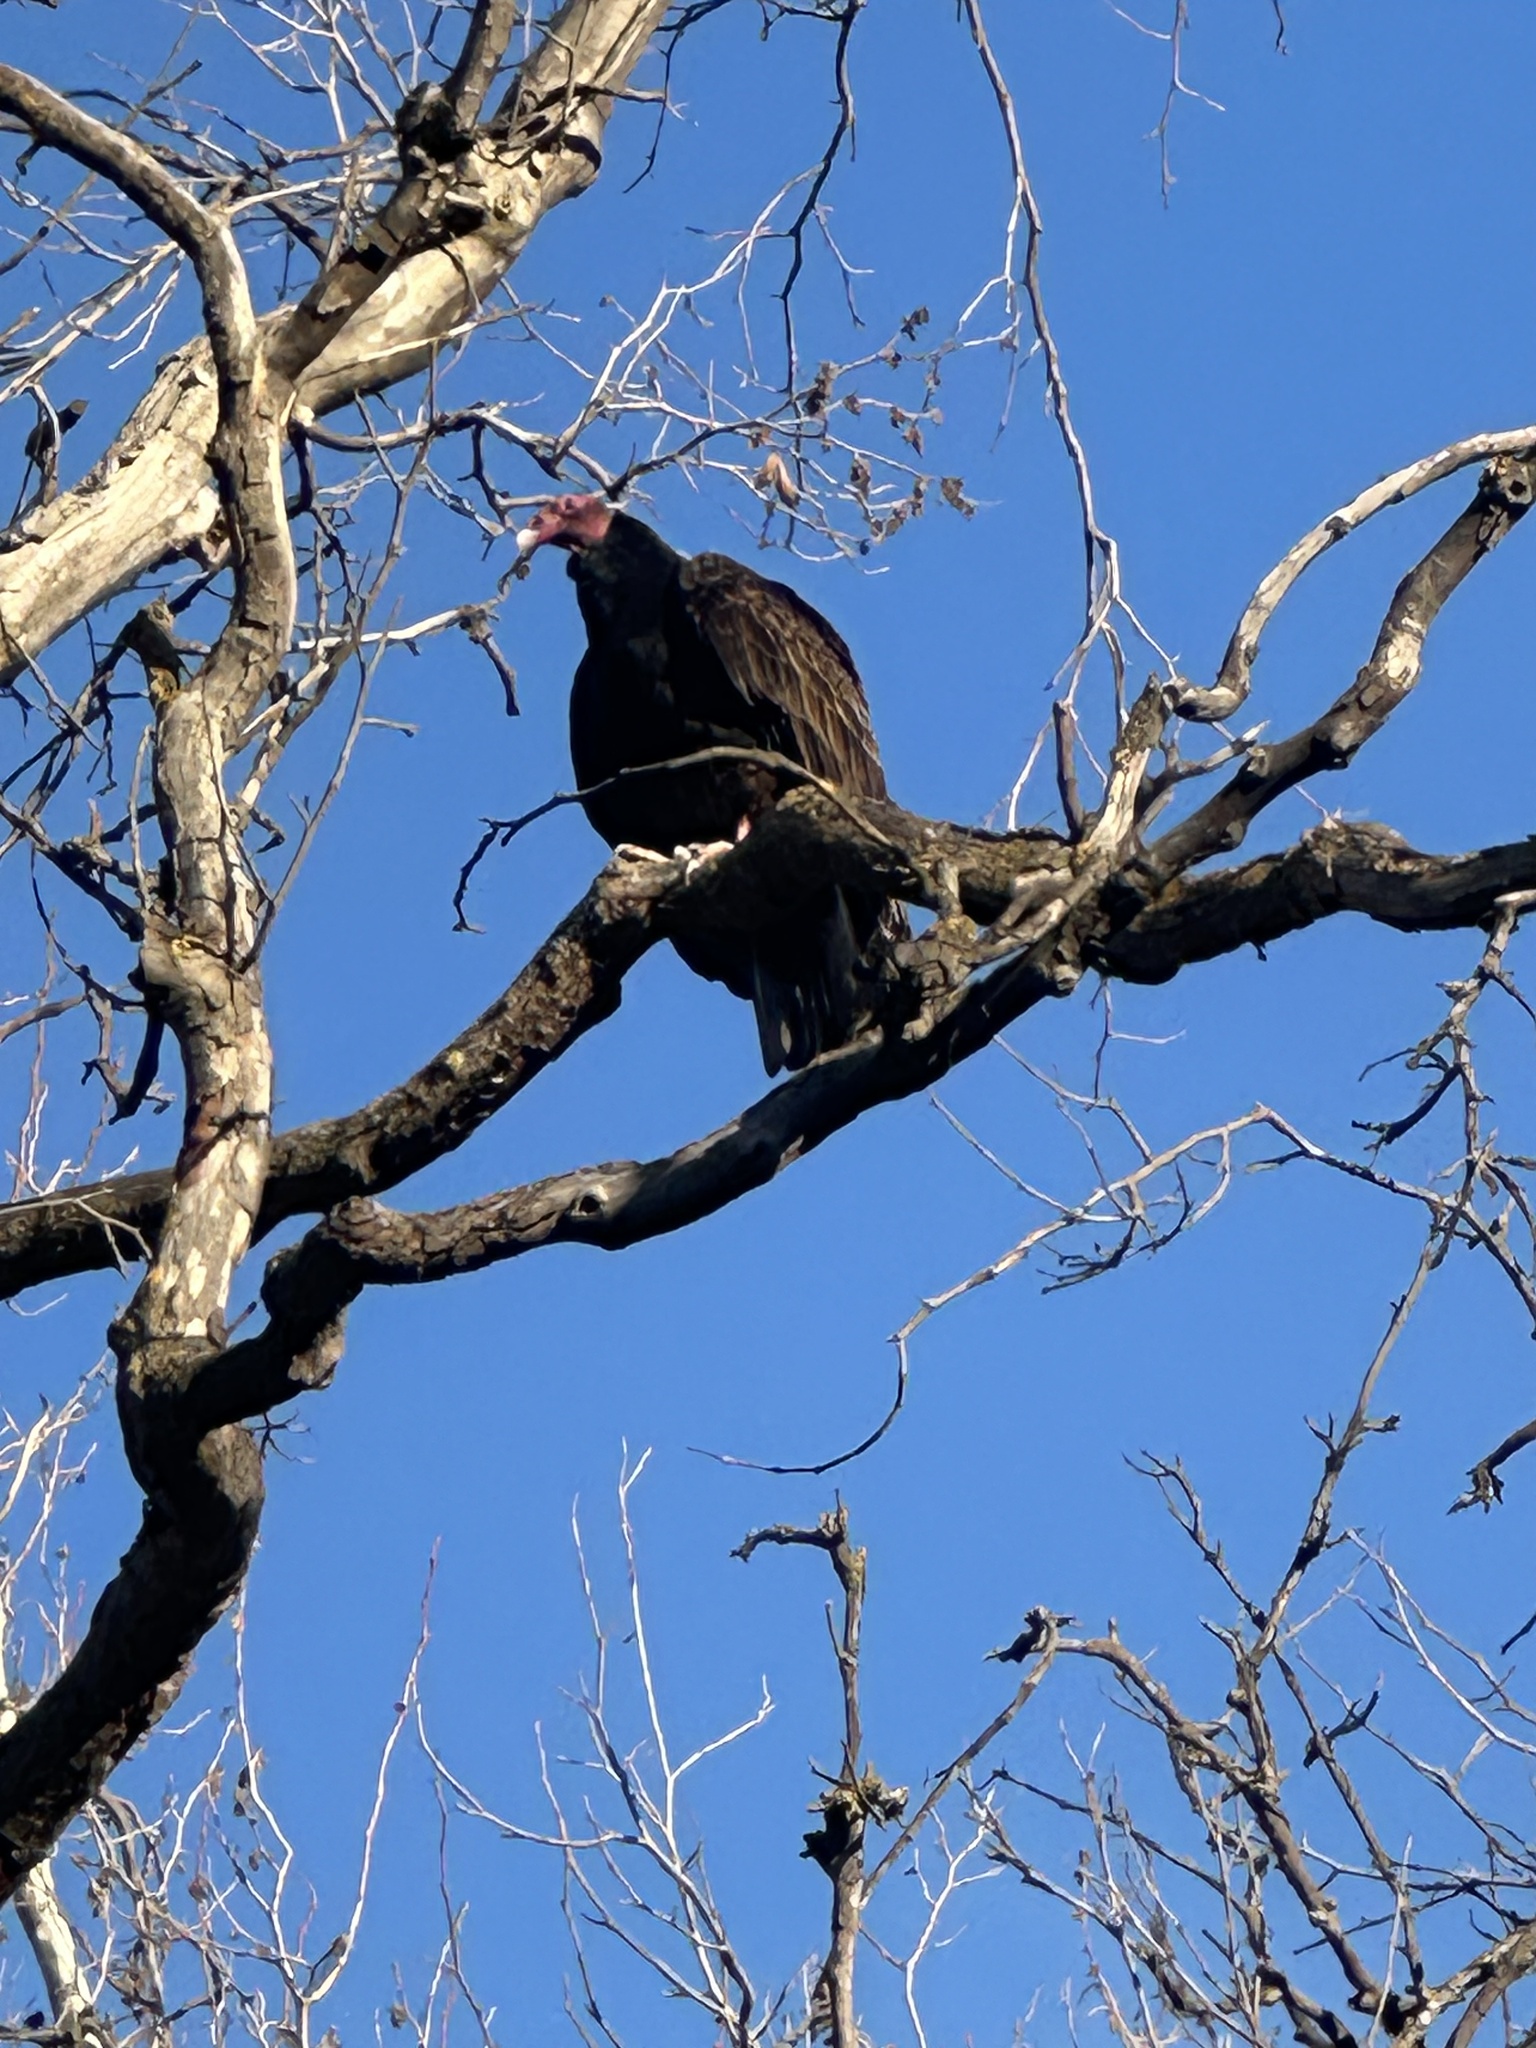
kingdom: Animalia
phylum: Chordata
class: Aves
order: Accipitriformes
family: Cathartidae
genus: Cathartes
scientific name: Cathartes aura
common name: Turkey vulture
